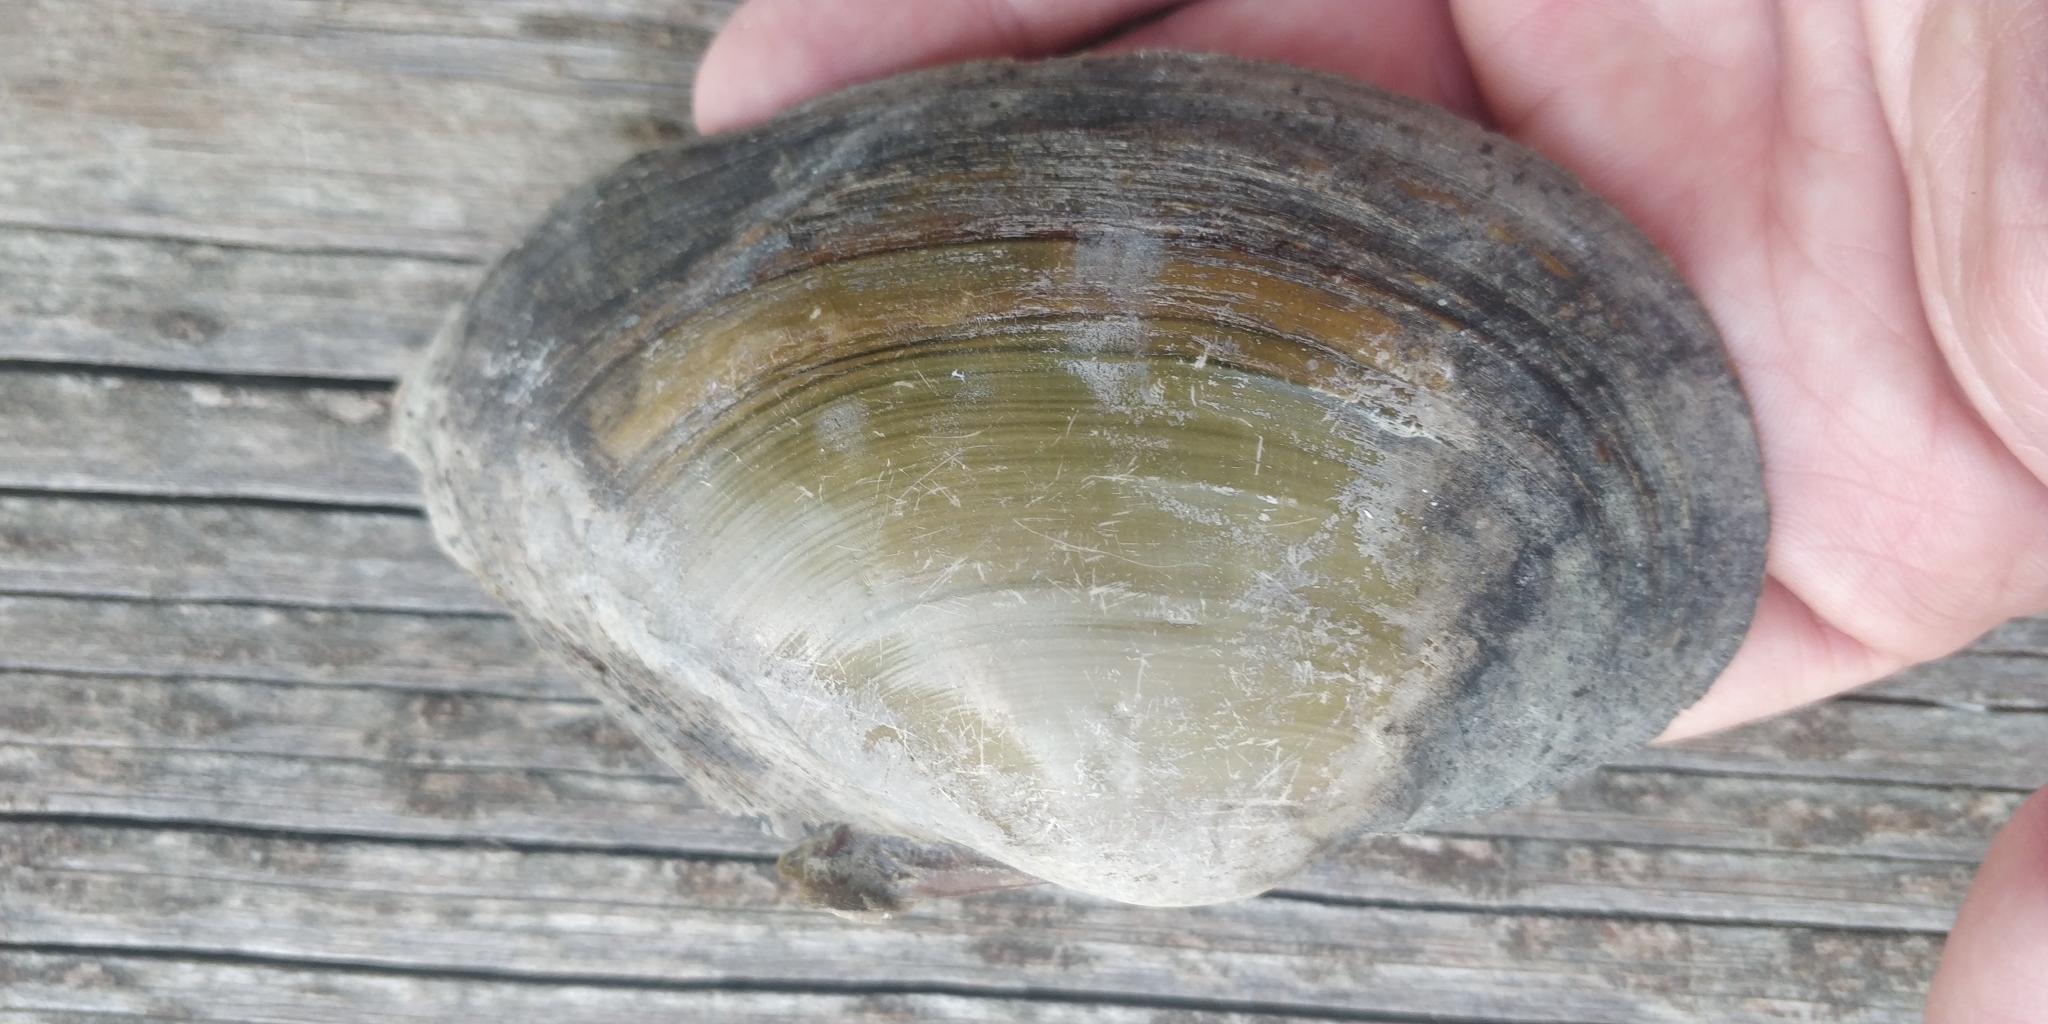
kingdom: Animalia
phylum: Mollusca
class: Bivalvia
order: Unionida
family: Unionidae
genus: Pyganodon
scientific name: Pyganodon grandis
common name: Giant floater
